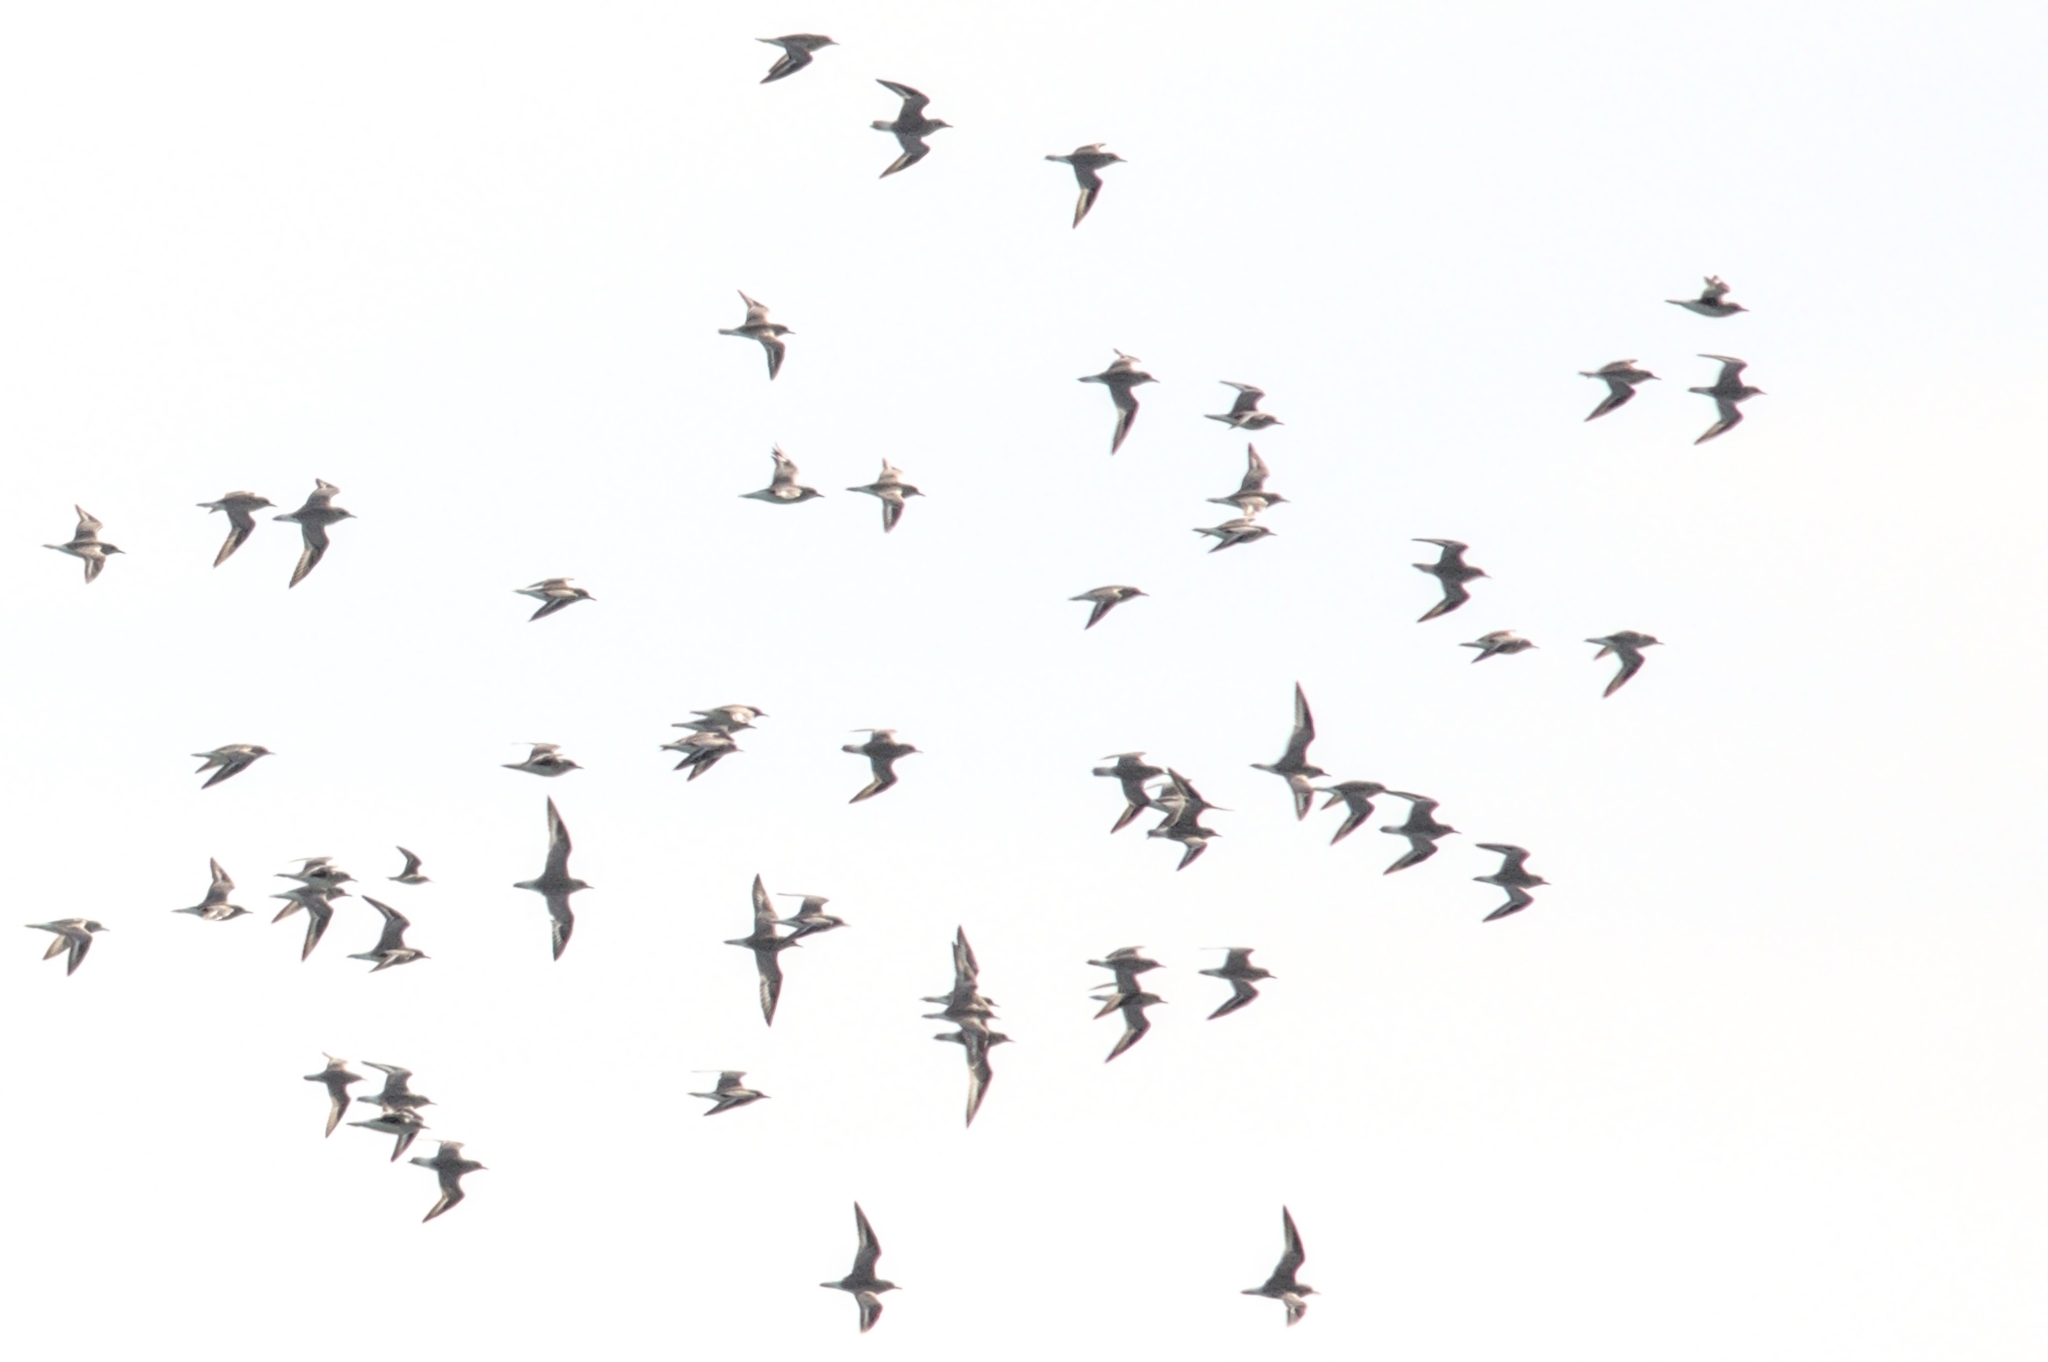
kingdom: Animalia
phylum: Chordata
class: Aves
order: Charadriiformes
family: Charadriidae
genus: Pluvialis
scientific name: Pluvialis apricaria
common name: European golden plover
